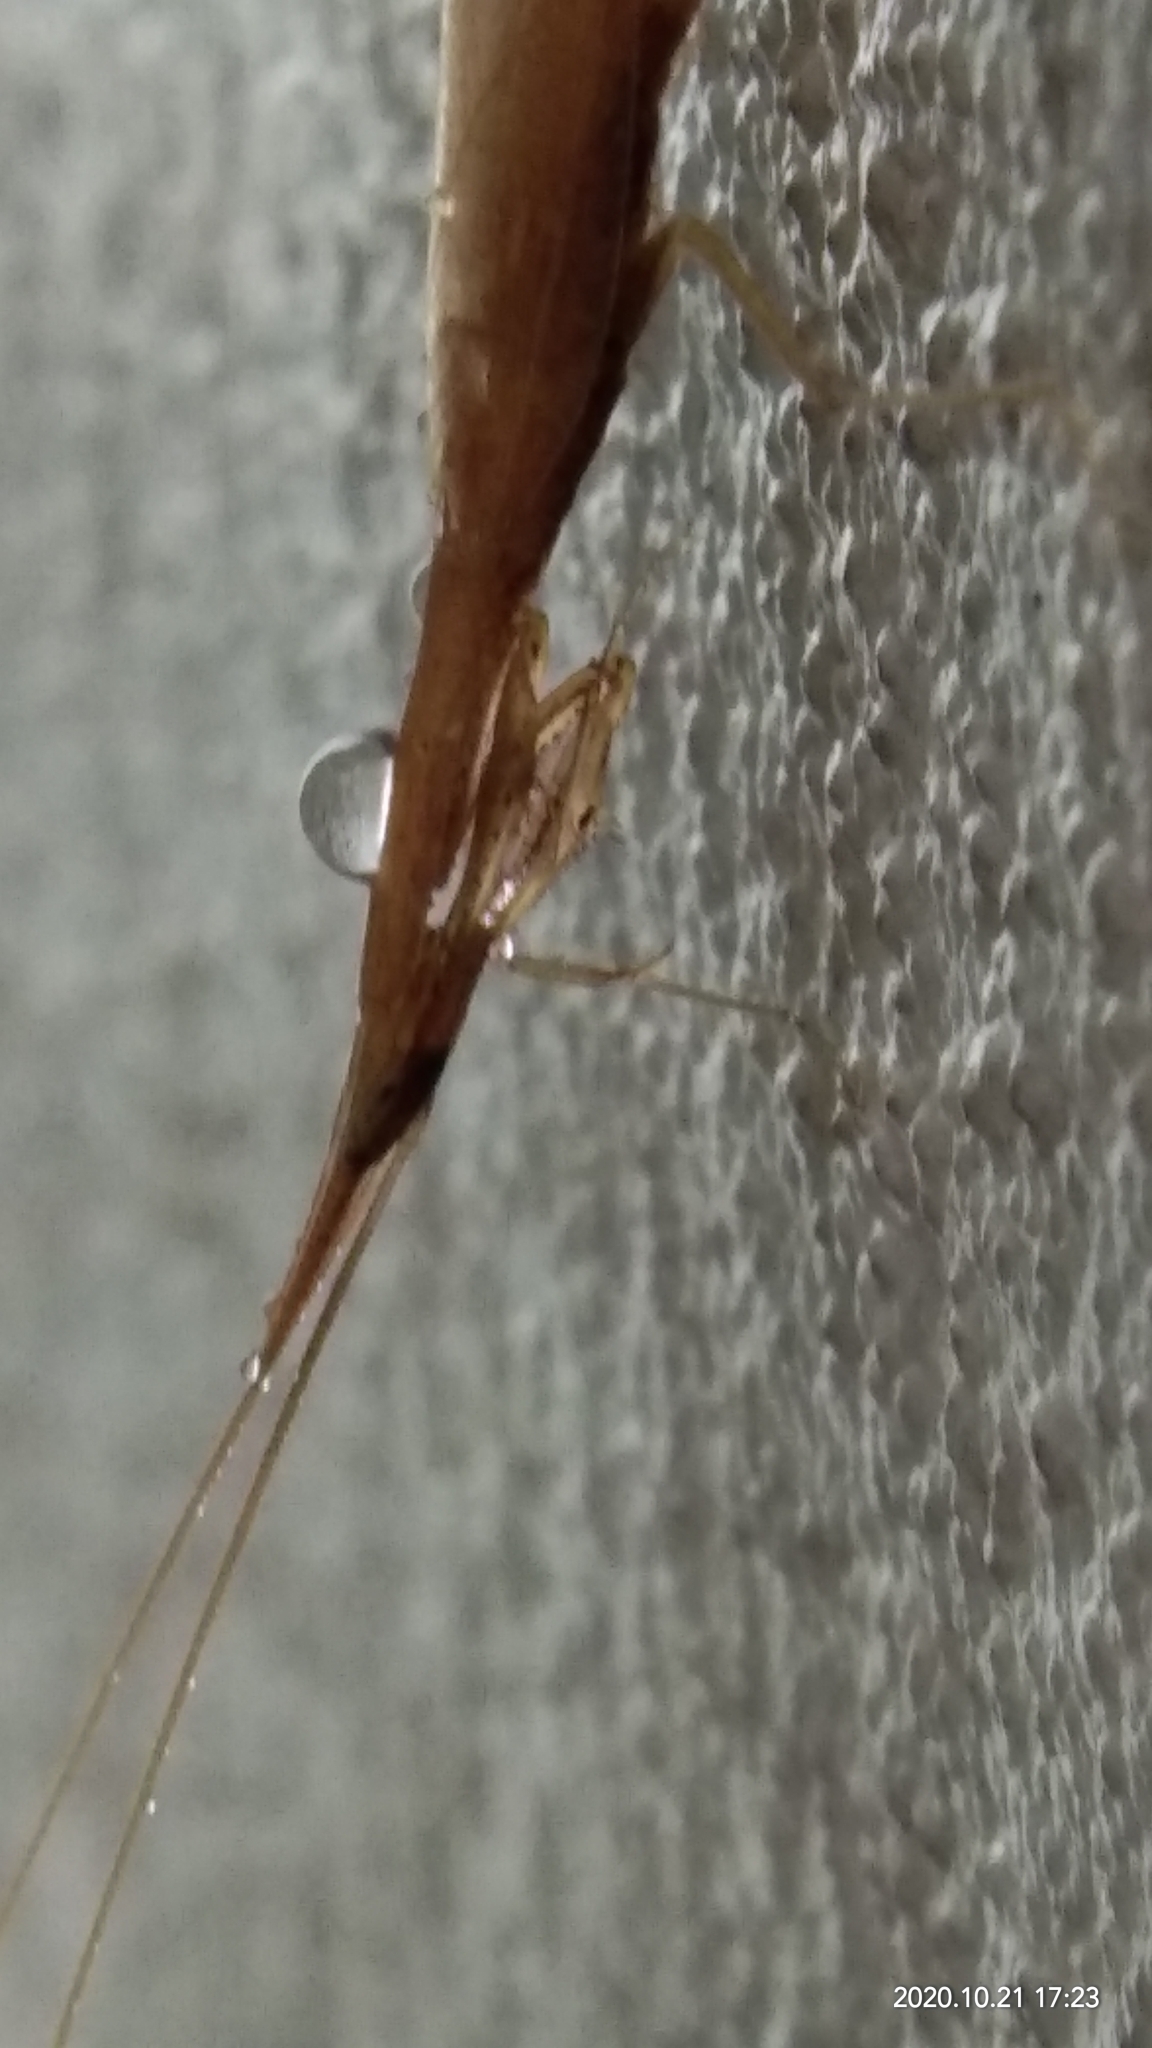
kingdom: Animalia
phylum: Arthropoda
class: Insecta
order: Mantodea
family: Eremiaphilidae
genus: Didymocorypha
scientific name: Didymocorypha libaii
